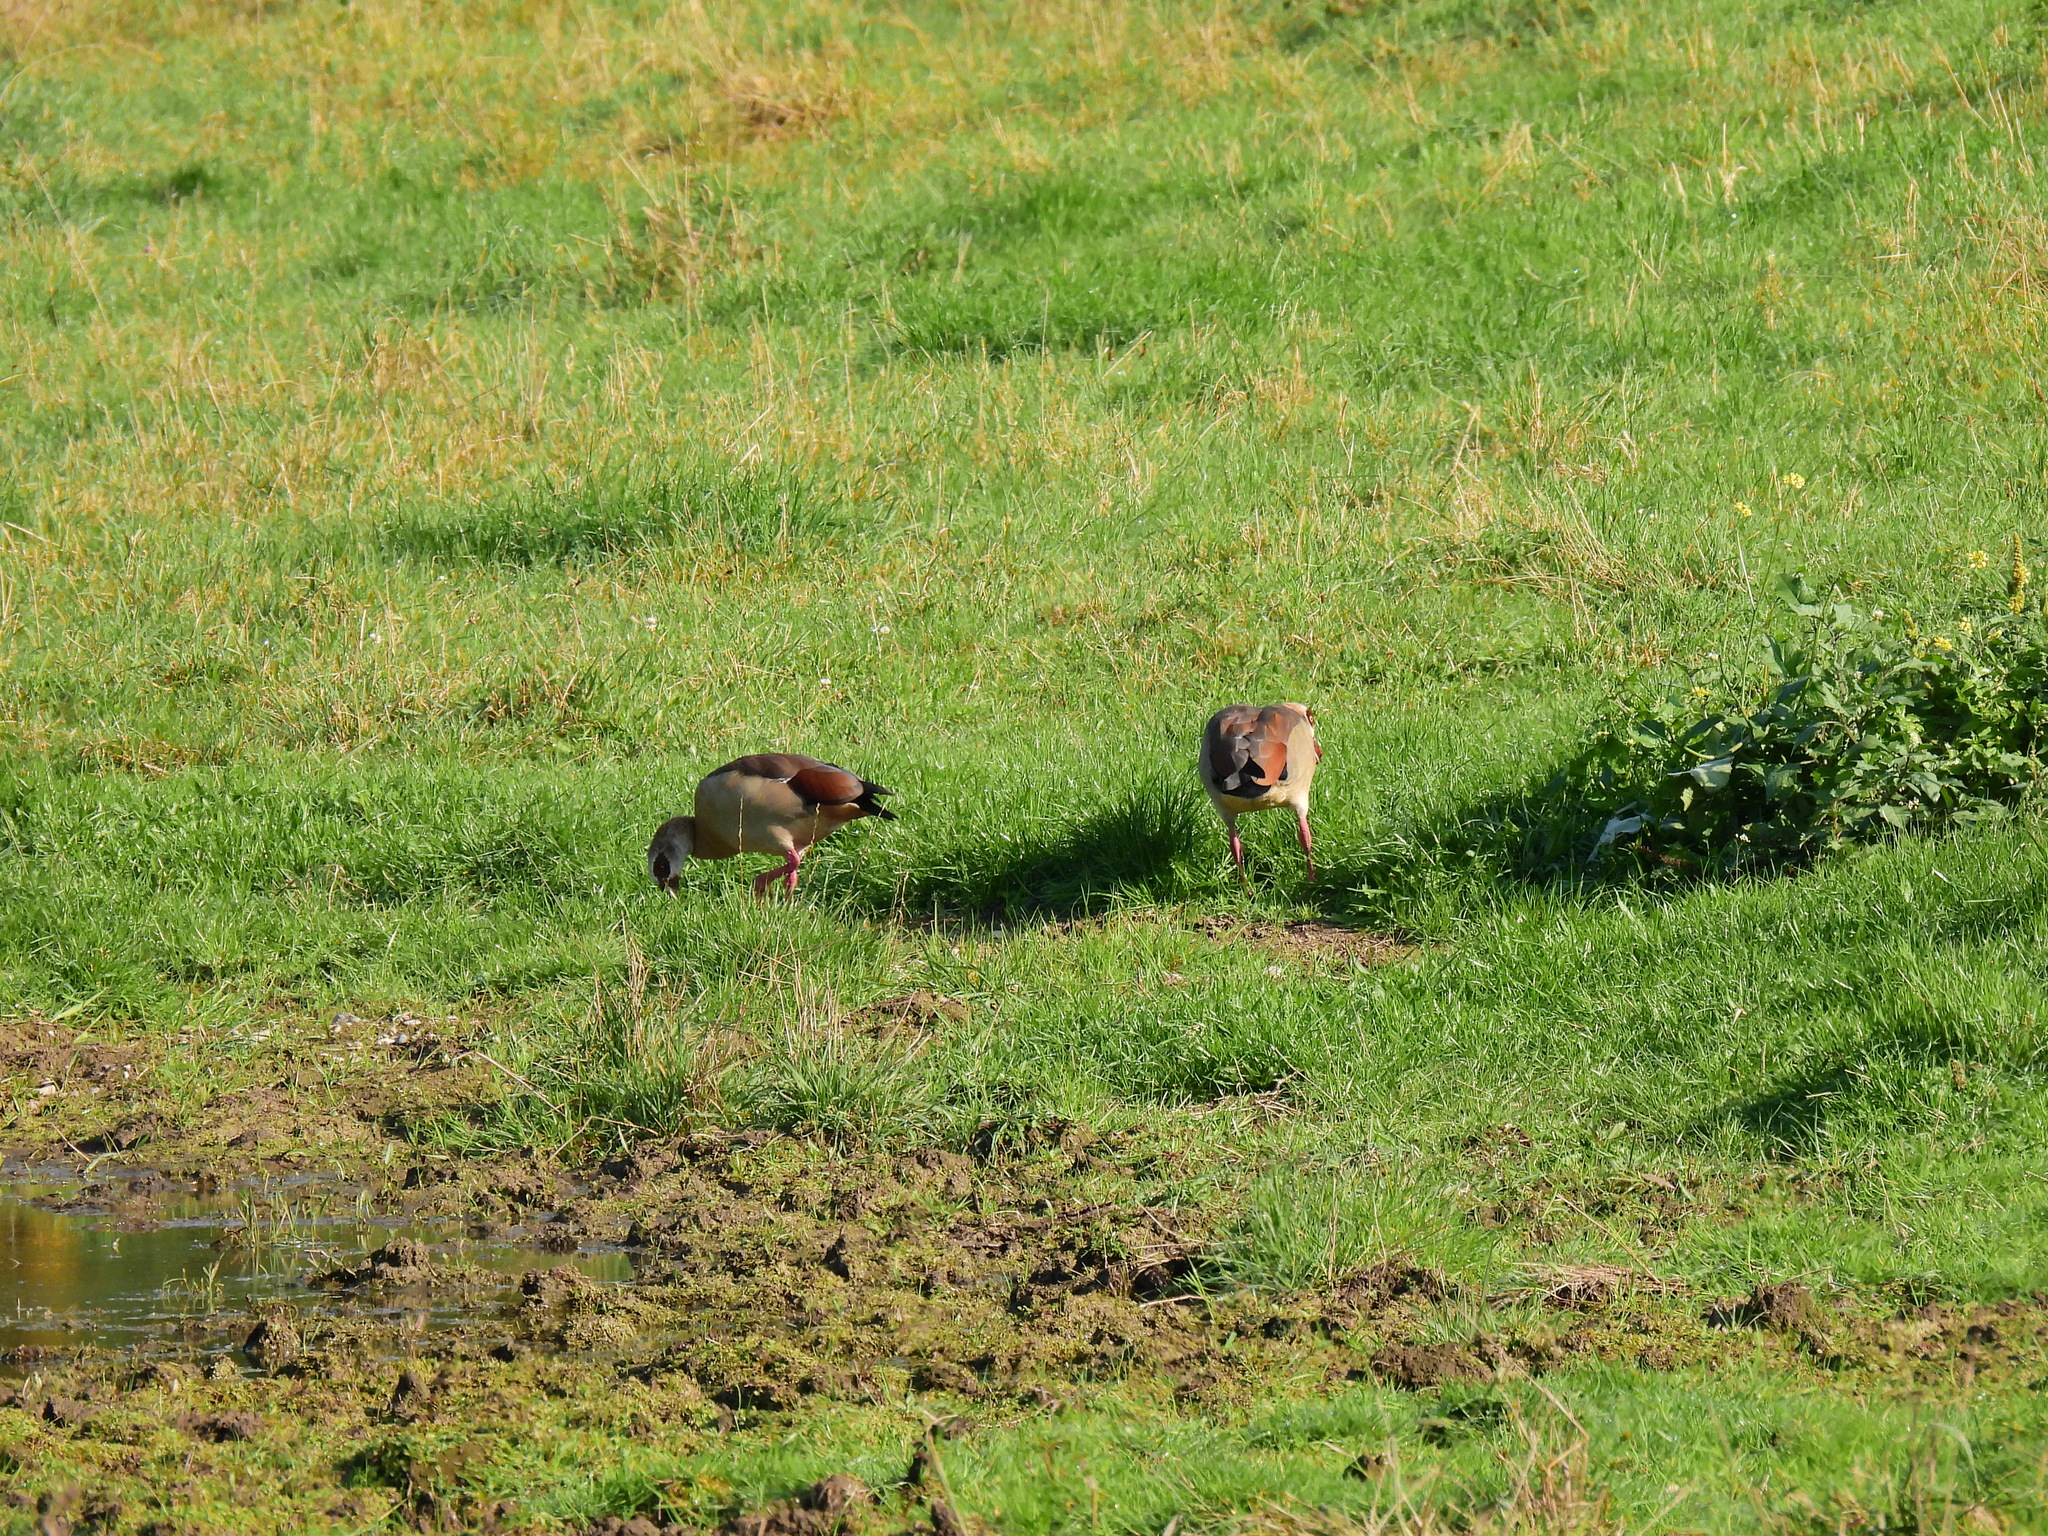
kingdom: Animalia
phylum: Chordata
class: Aves
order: Anseriformes
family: Anatidae
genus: Alopochen
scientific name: Alopochen aegyptiaca
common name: Egyptian goose
